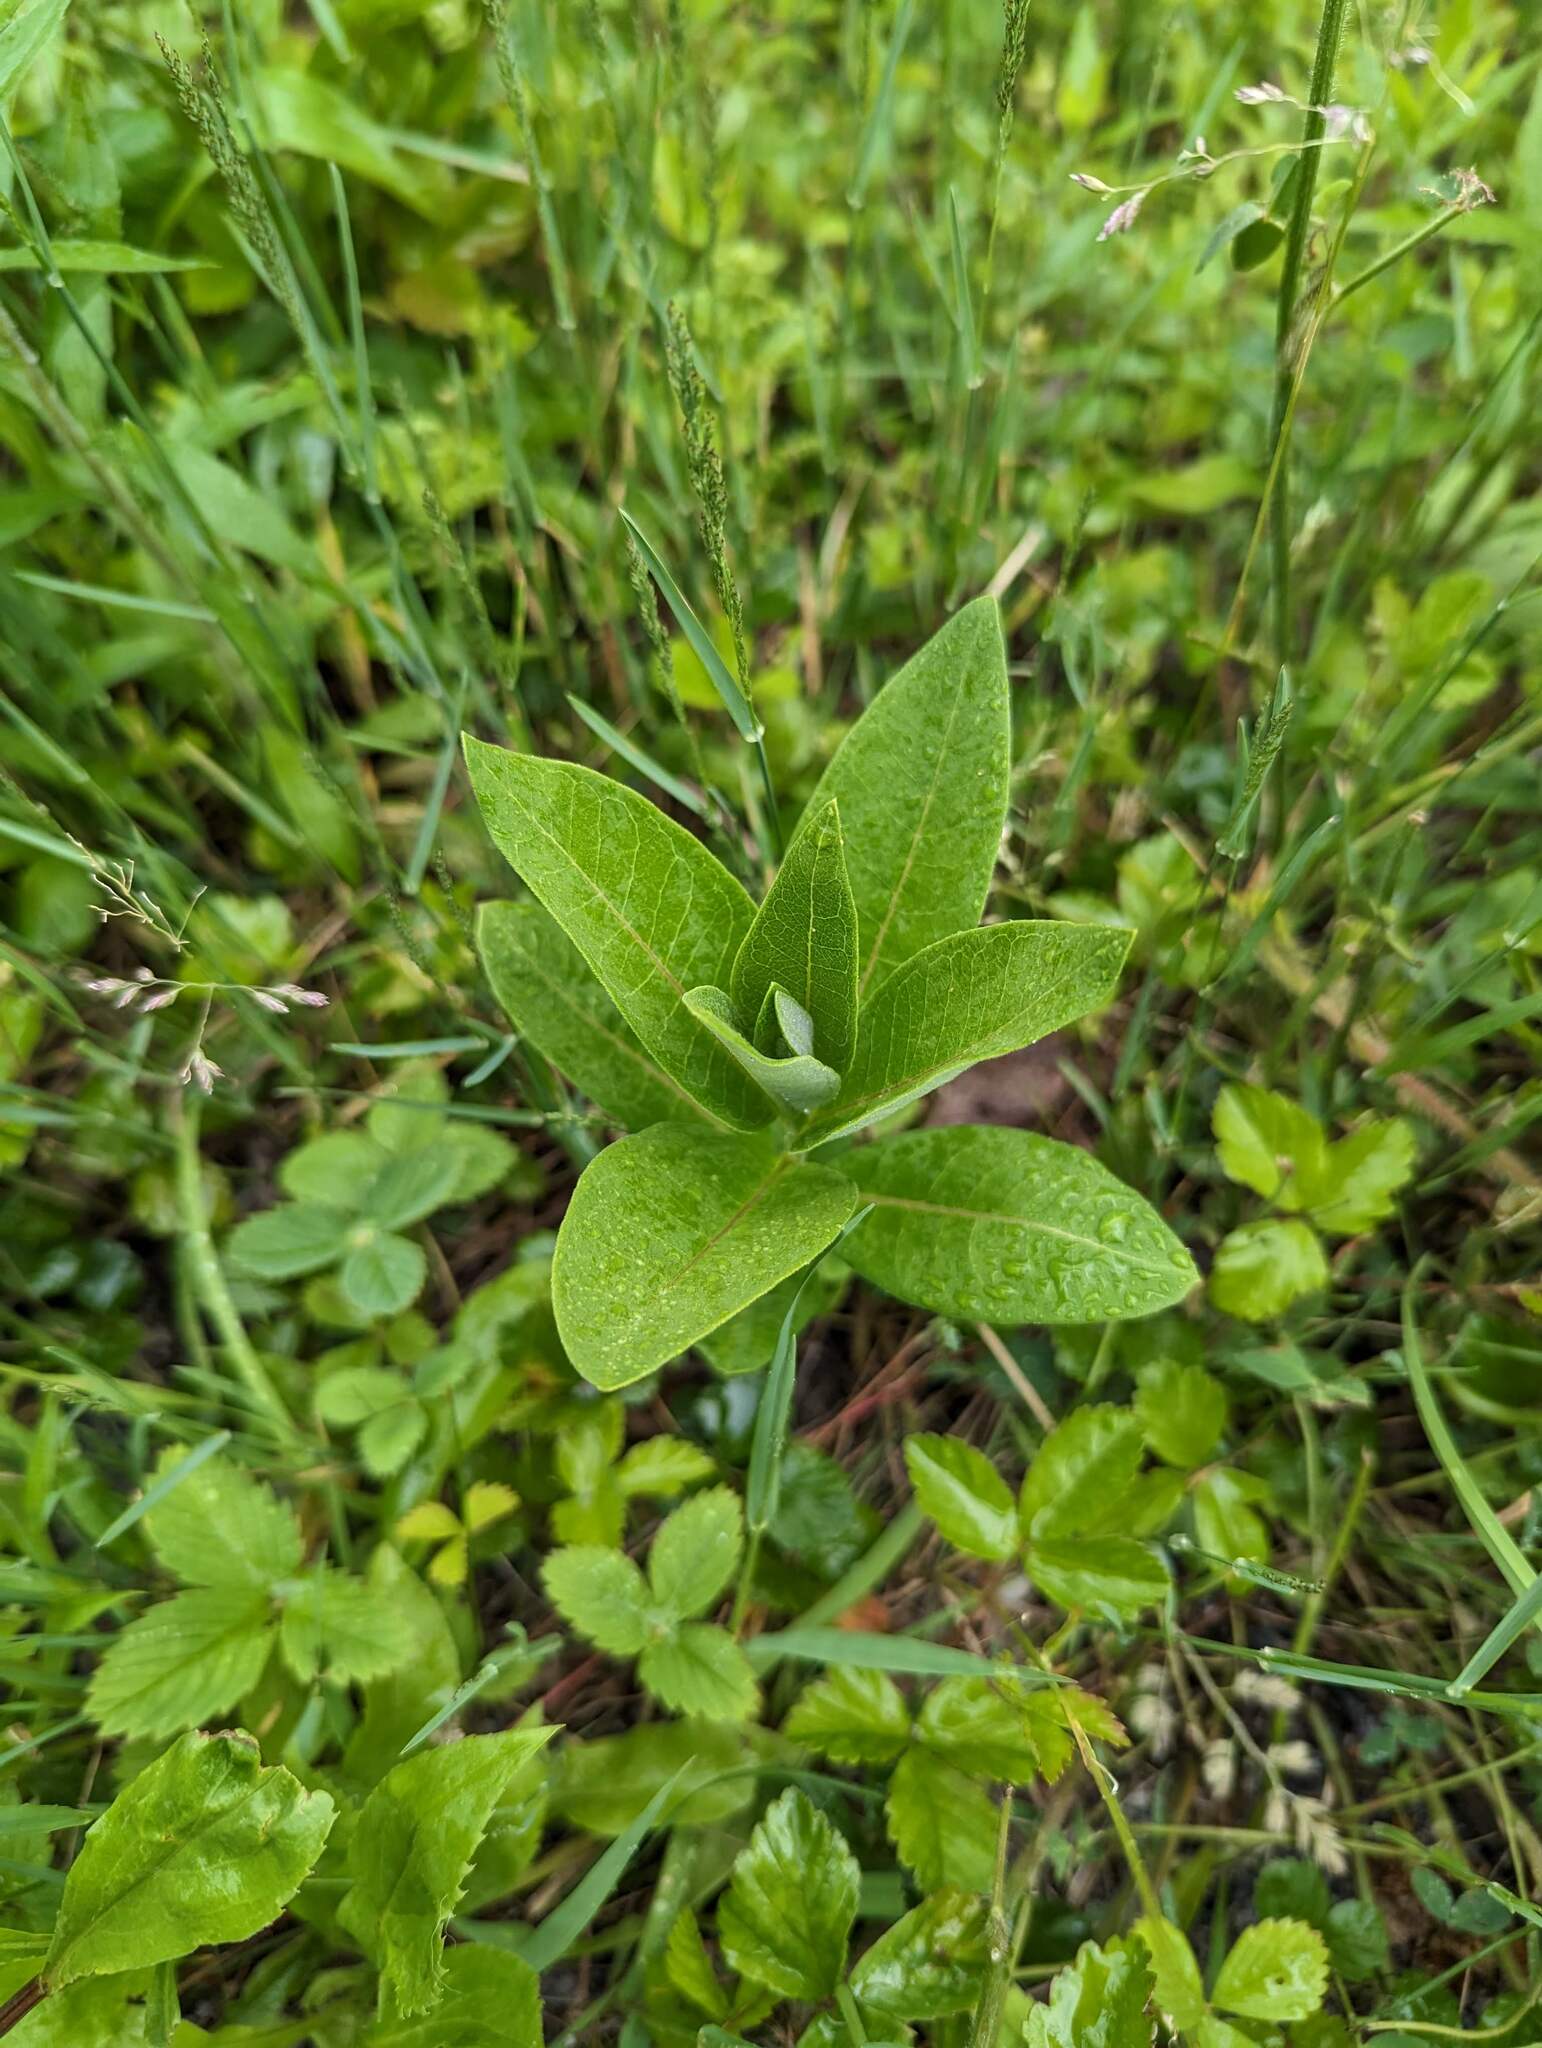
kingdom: Plantae
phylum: Tracheophyta
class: Magnoliopsida
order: Gentianales
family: Apocynaceae
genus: Asclepias
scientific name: Asclepias syriaca
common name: Common milkweed
